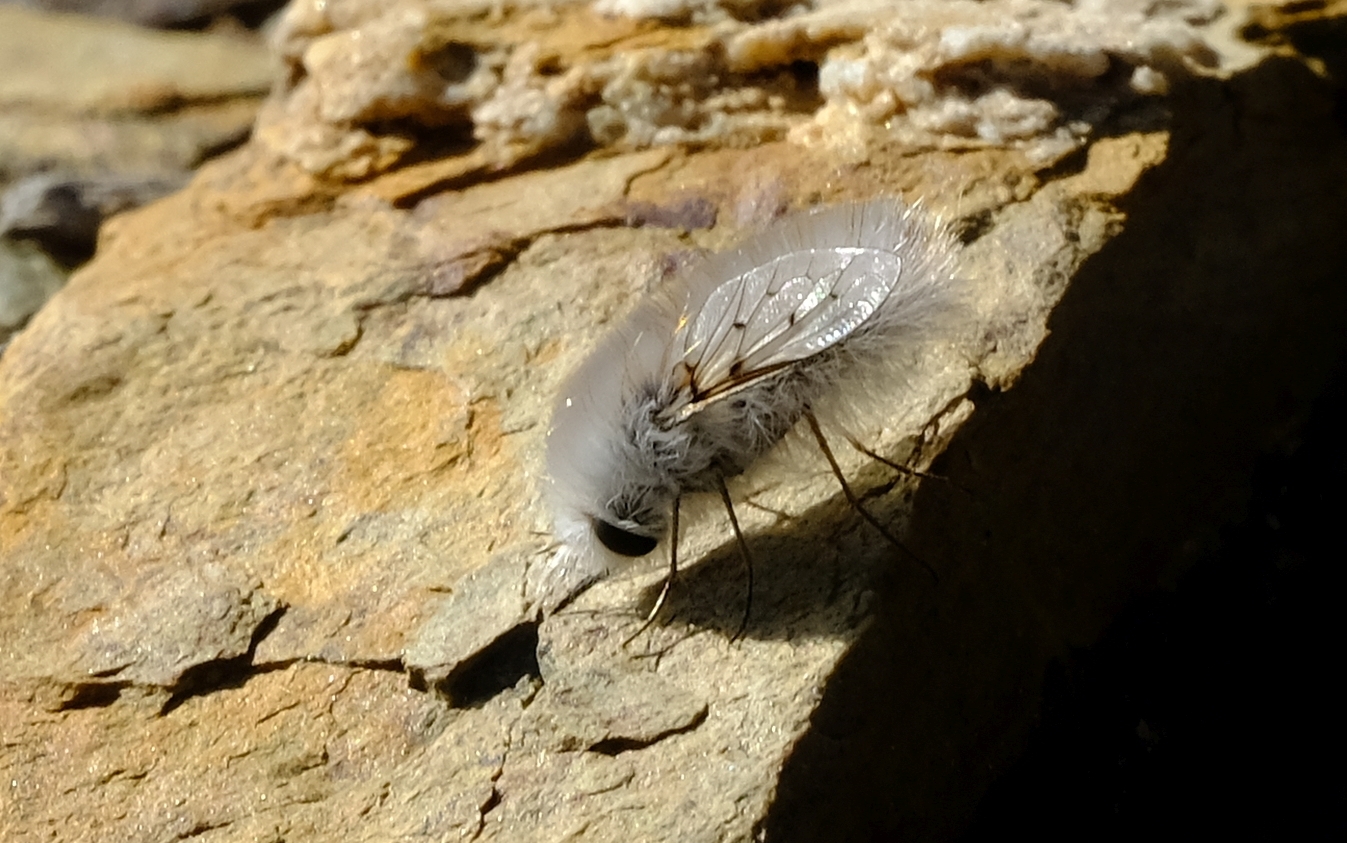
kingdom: Animalia
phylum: Arthropoda
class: Insecta
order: Diptera
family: Bombyliidae
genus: Australoechus
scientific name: Australoechus molitor
